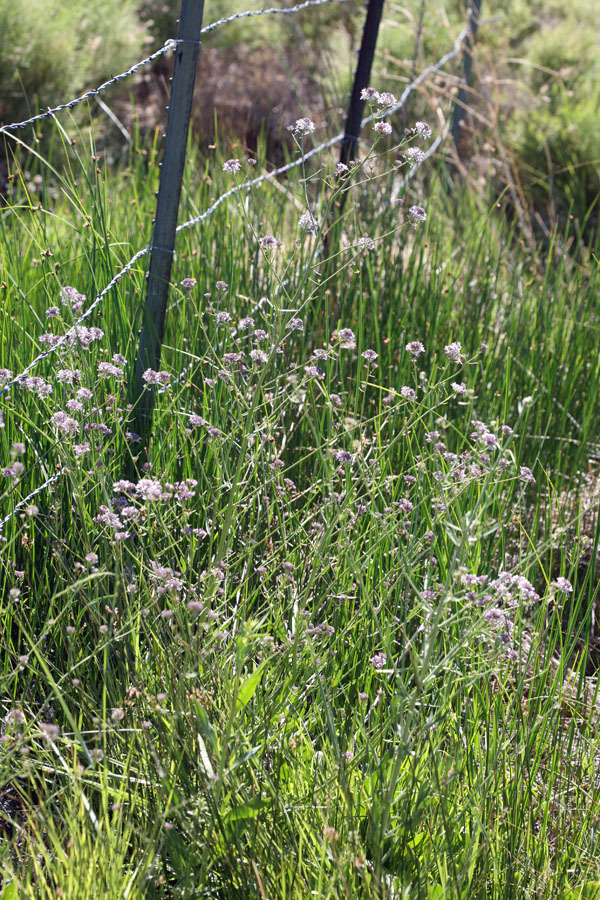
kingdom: Plantae
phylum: Tracheophyta
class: Magnoliopsida
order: Brassicales
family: Brassicaceae
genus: Thelypodium
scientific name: Thelypodium integrifolium
